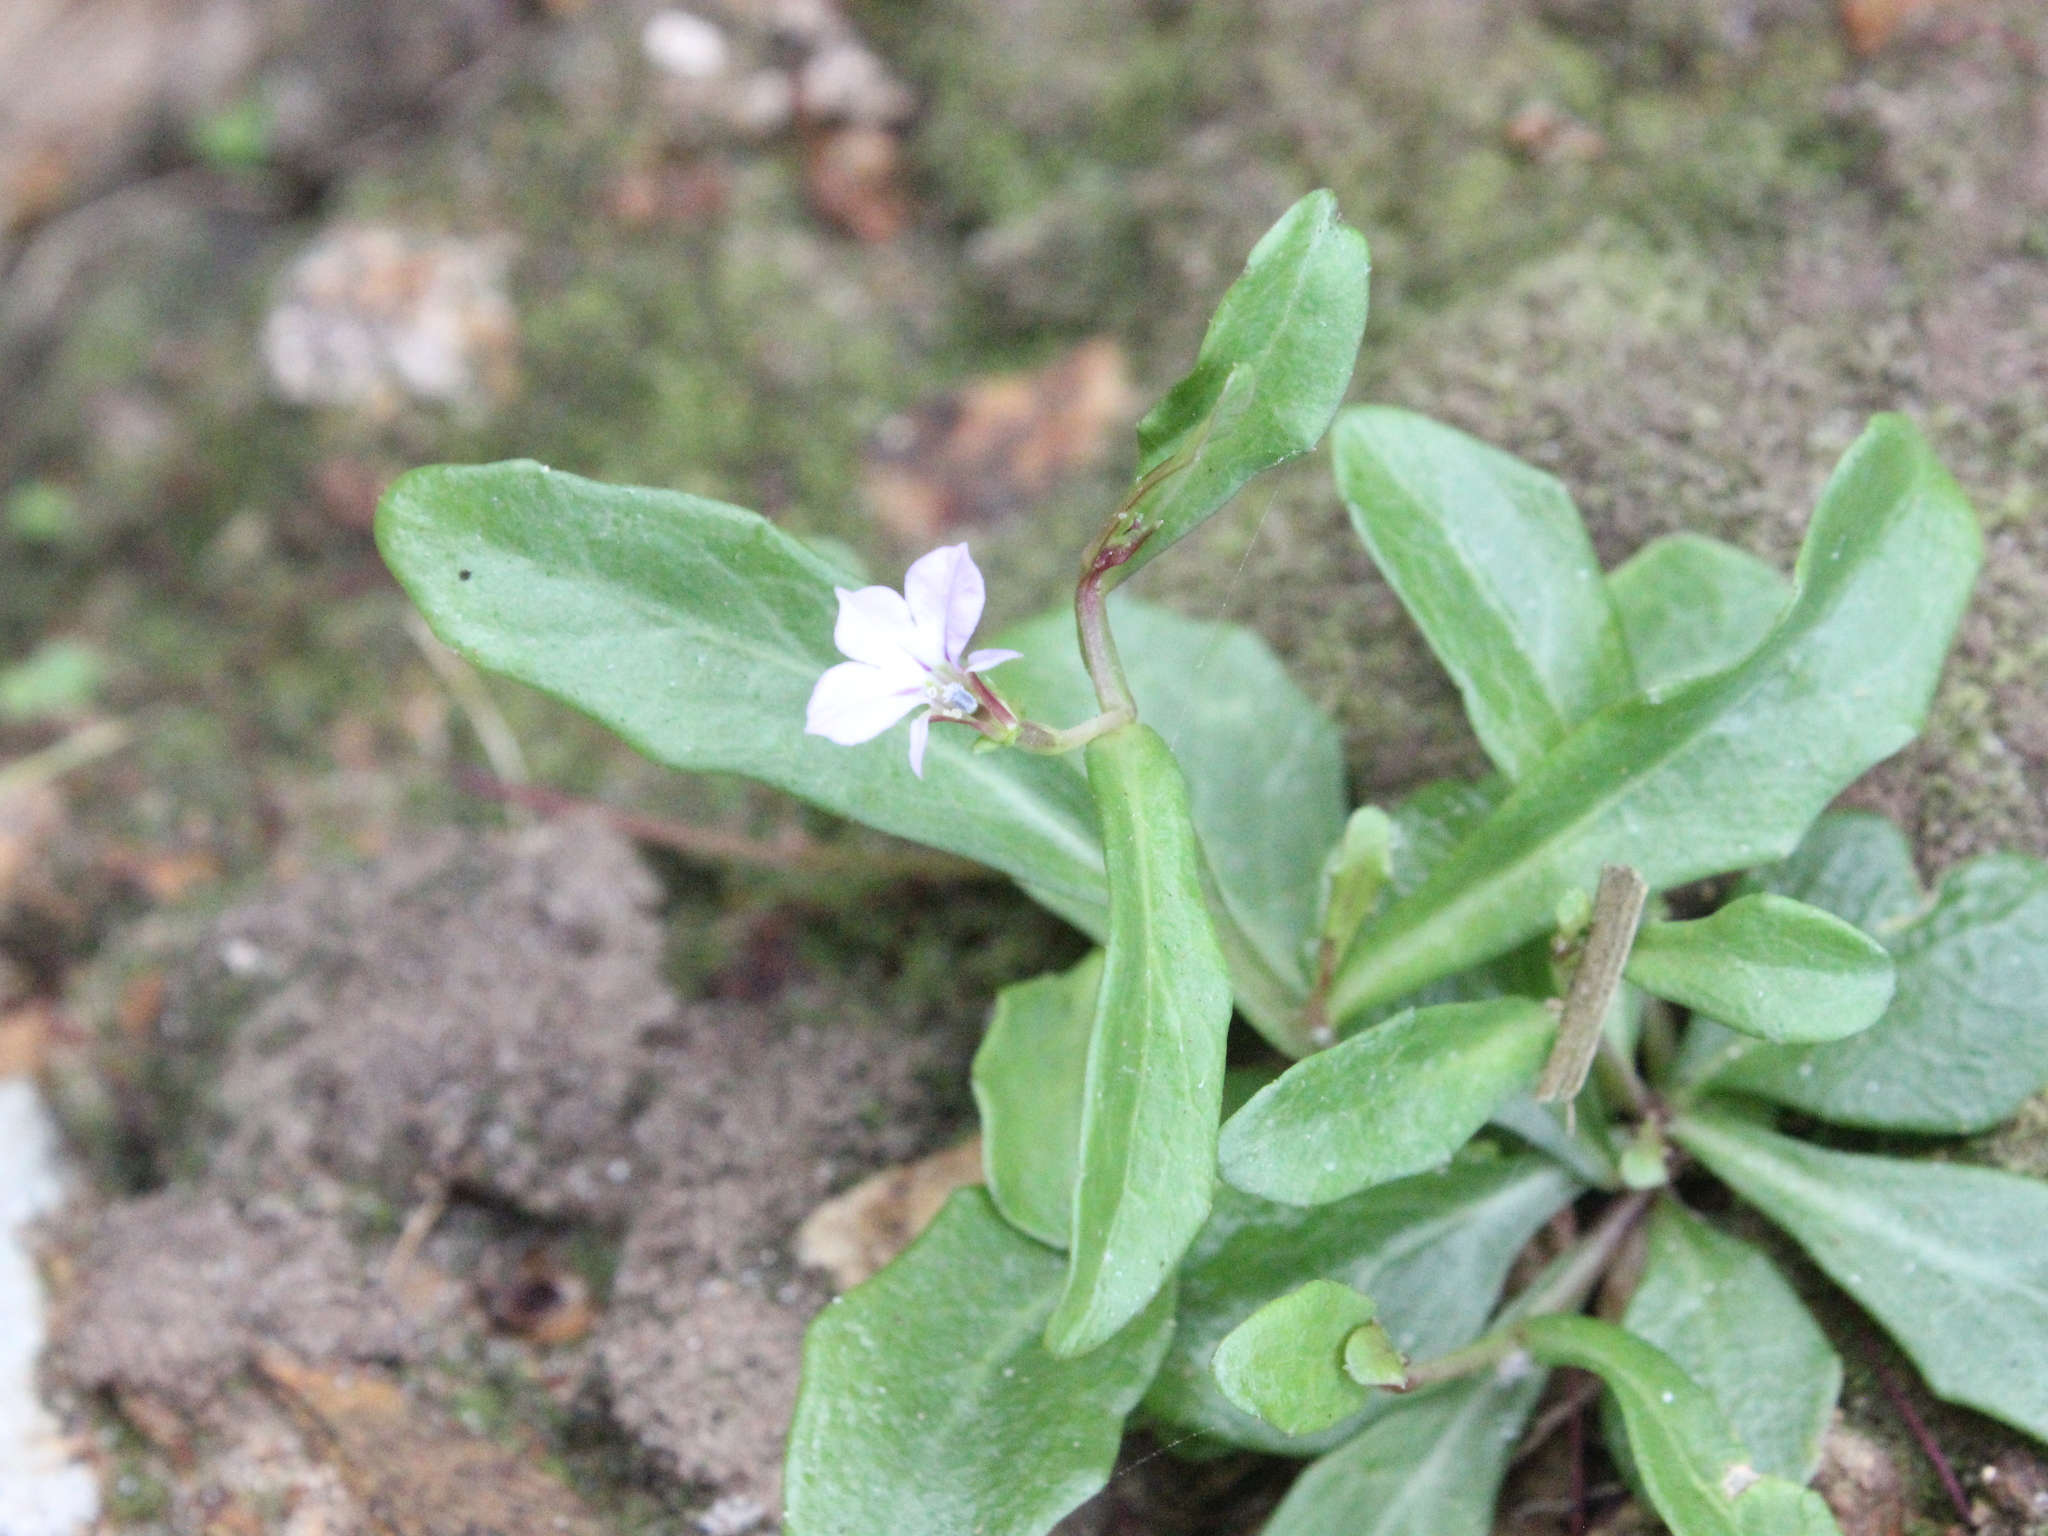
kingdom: Plantae
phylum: Tracheophyta
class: Magnoliopsida
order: Asterales
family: Campanulaceae
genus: Lobelia
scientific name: Lobelia anceps
